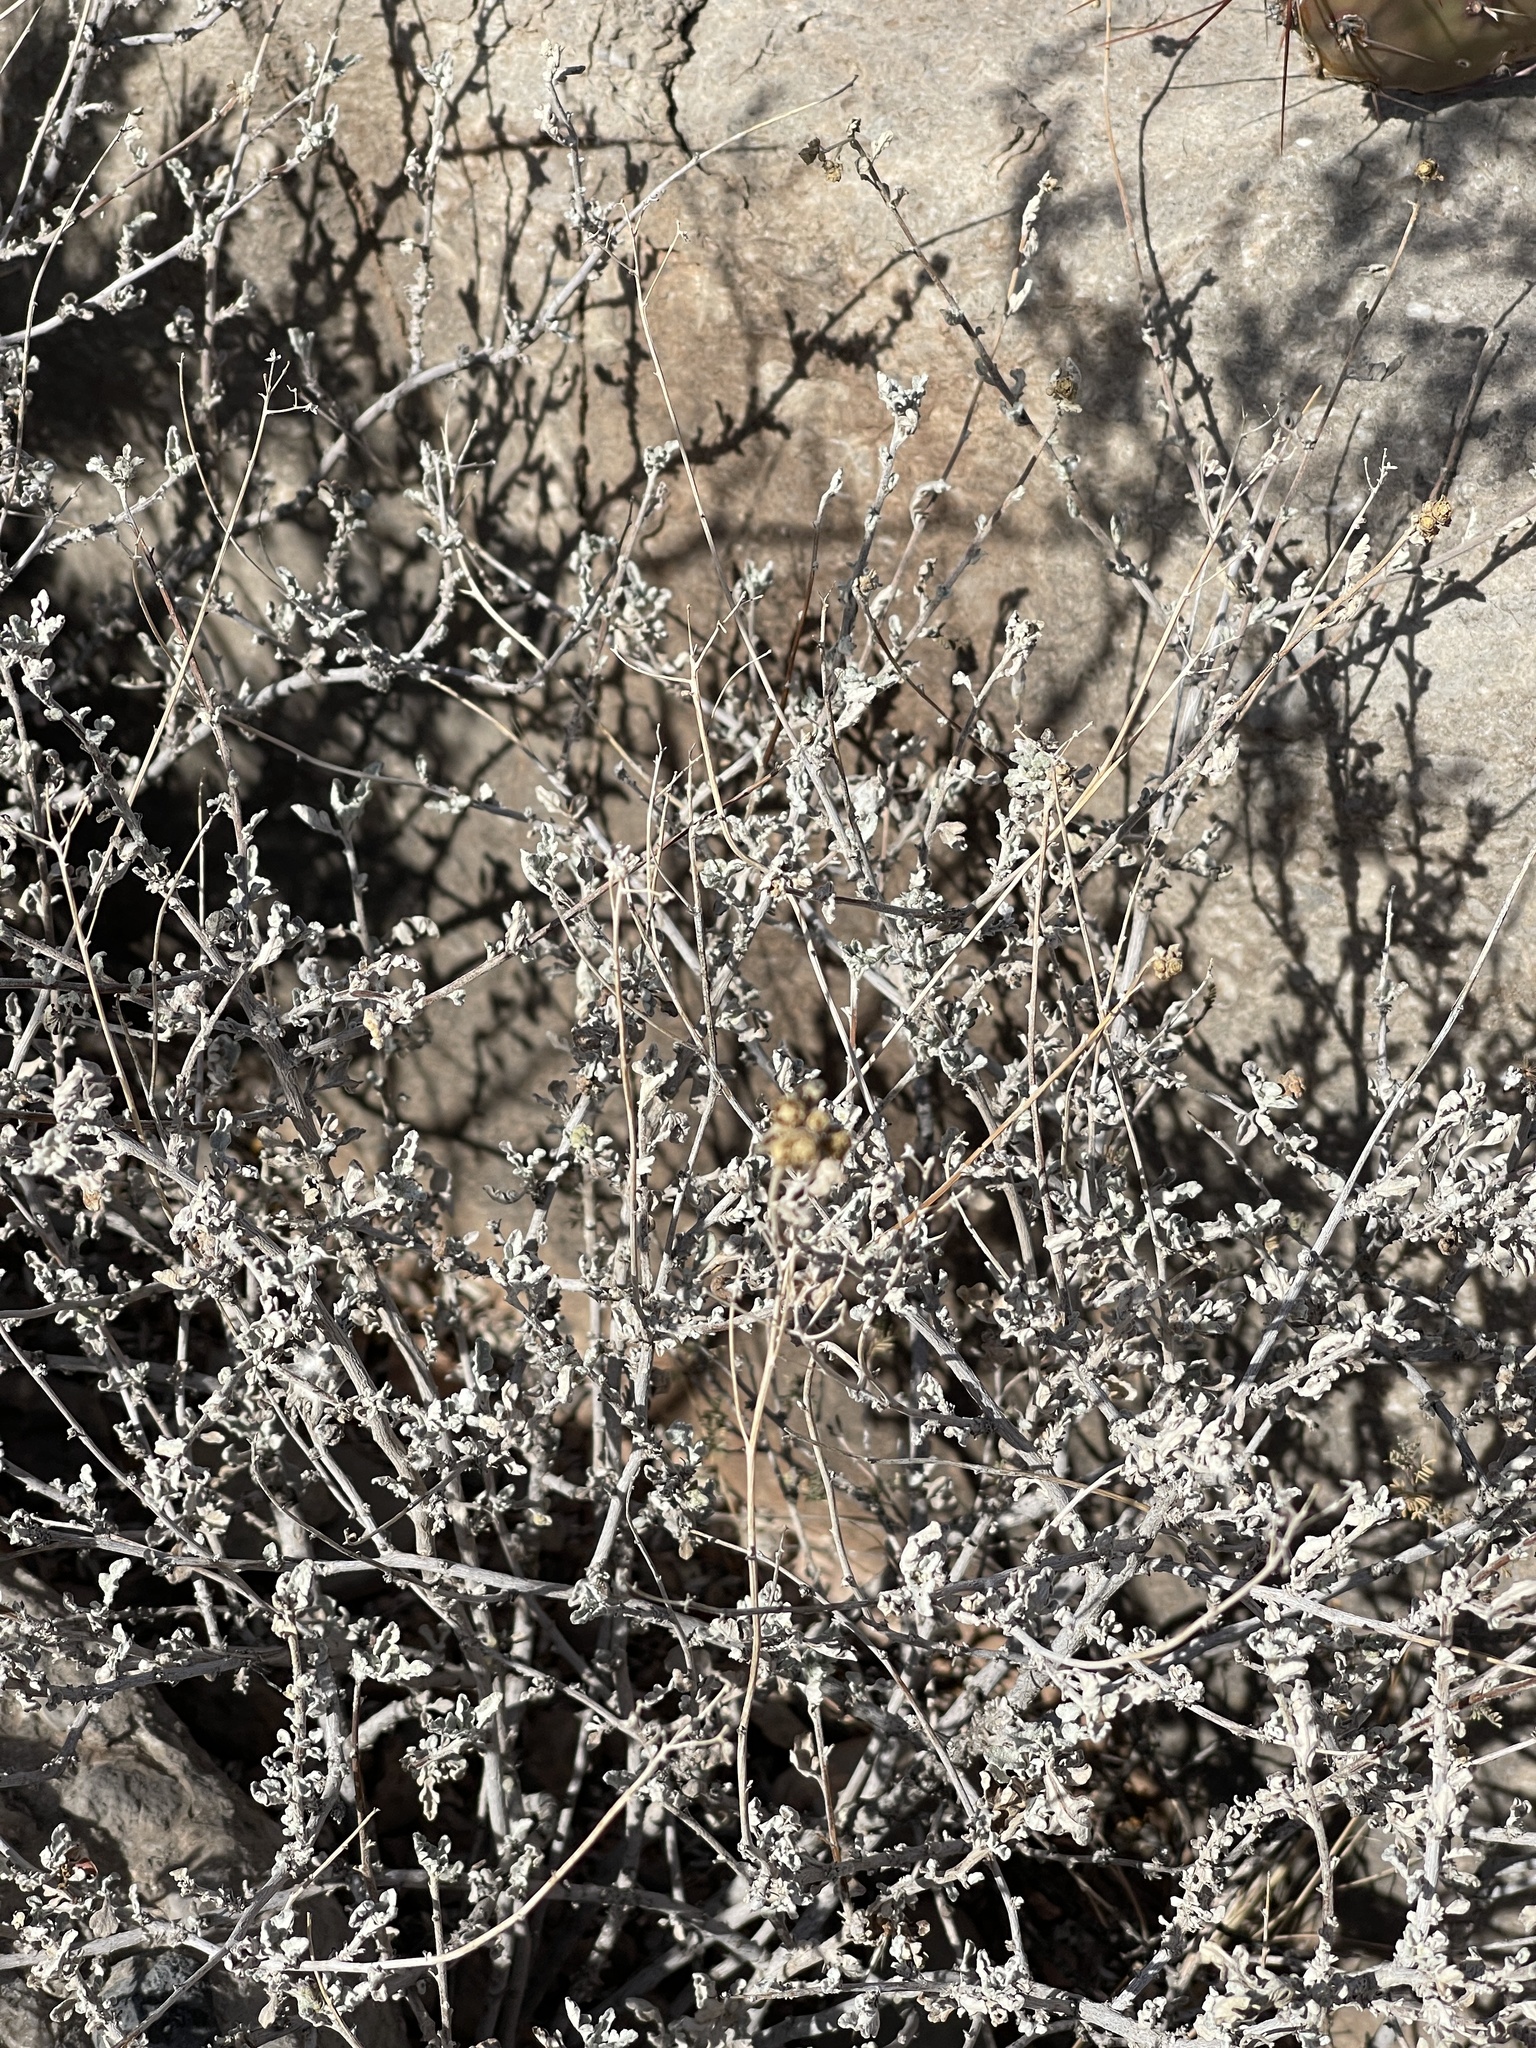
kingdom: Plantae
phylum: Tracheophyta
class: Magnoliopsida
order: Asterales
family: Asteraceae
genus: Parthenium
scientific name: Parthenium incanum
